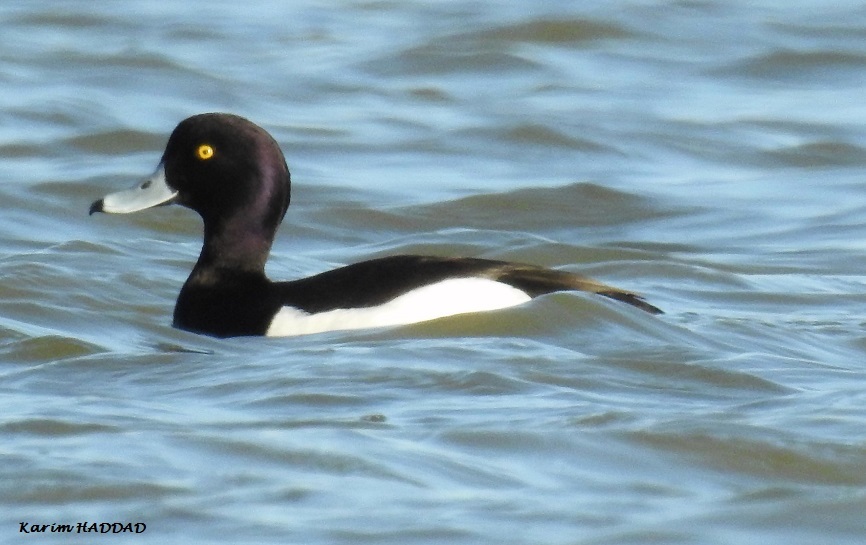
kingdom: Animalia
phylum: Chordata
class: Aves
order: Anseriformes
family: Anatidae
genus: Aythya
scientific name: Aythya fuligula
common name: Tufted duck
